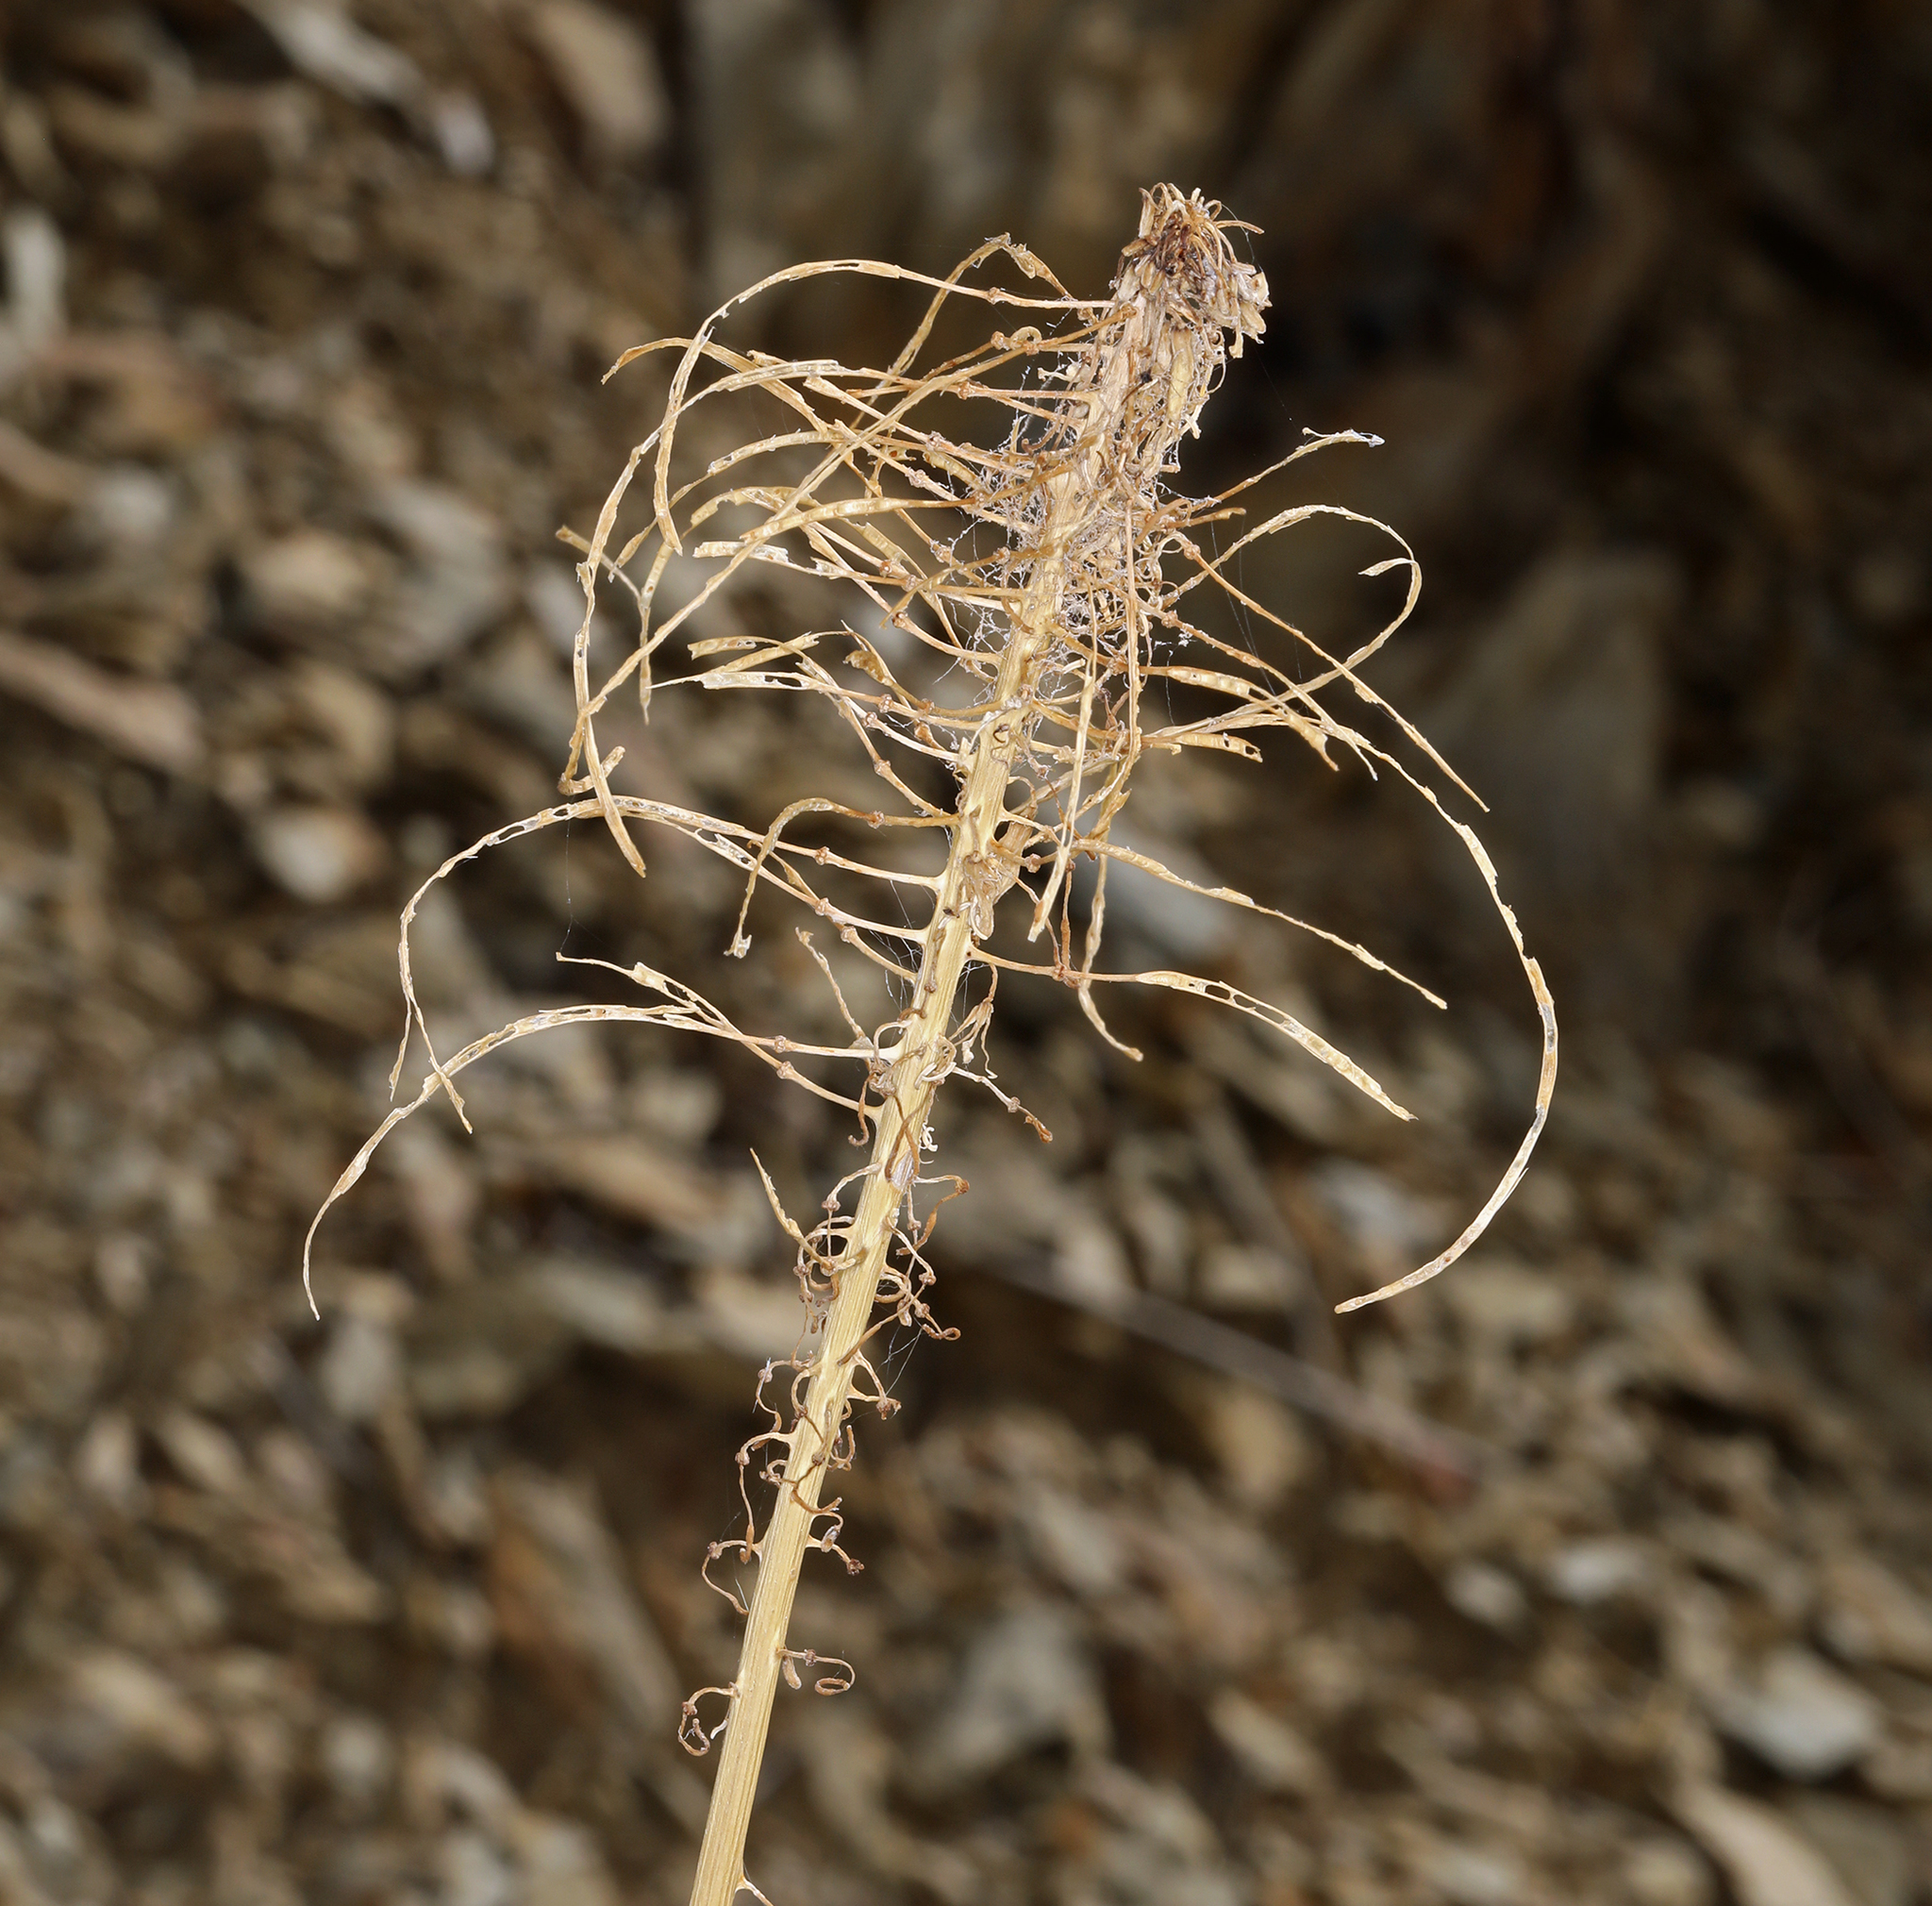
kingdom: Plantae
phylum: Tracheophyta
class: Magnoliopsida
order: Brassicales
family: Brassicaceae
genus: Stanleya
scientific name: Stanleya elata
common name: Panamint prince's plume
